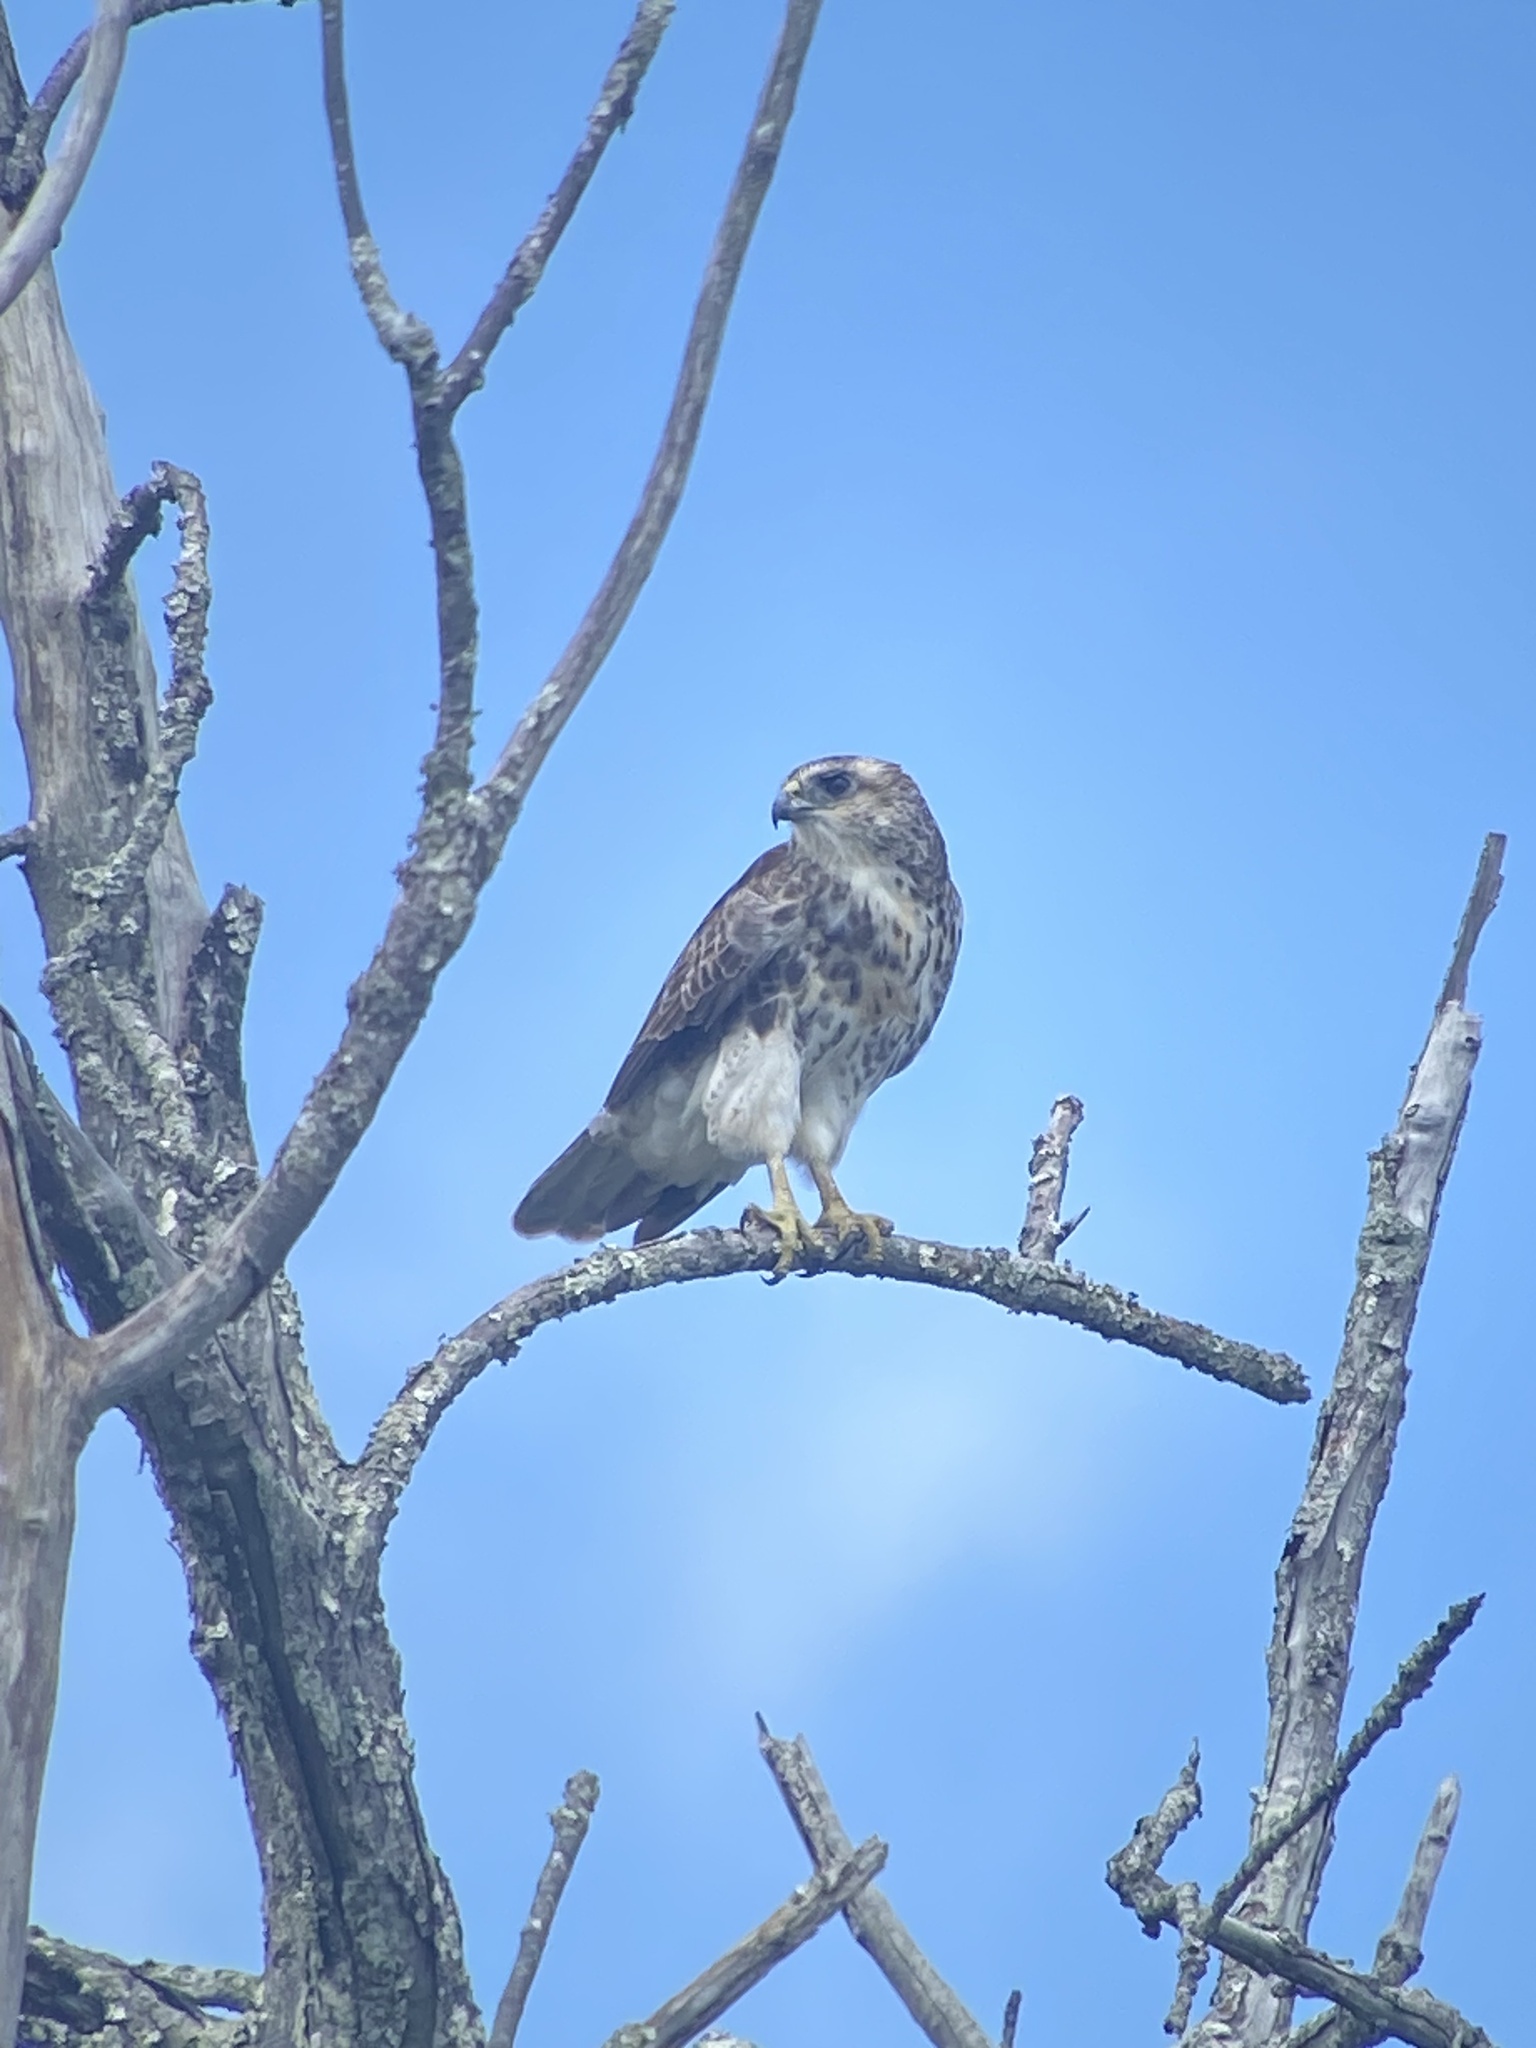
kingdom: Animalia
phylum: Chordata
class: Aves
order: Accipitriformes
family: Accipitridae
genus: Buteo
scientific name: Buteo solitarius
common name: Hawaiian hawk
